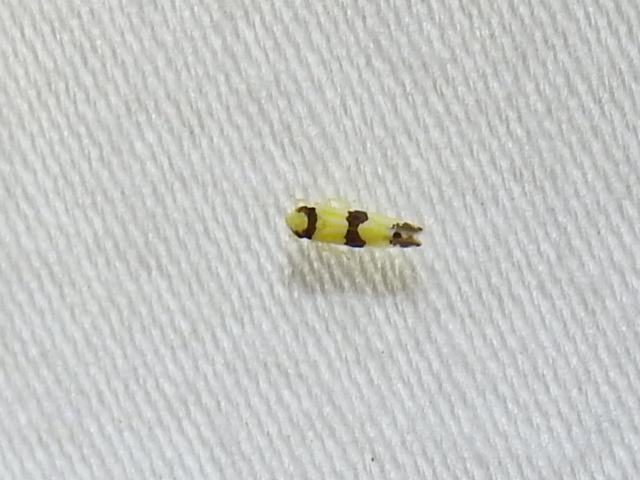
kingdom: Animalia
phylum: Arthropoda
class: Insecta
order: Hemiptera
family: Cicadellidae
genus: Erythroneura
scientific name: Erythroneura calycula
